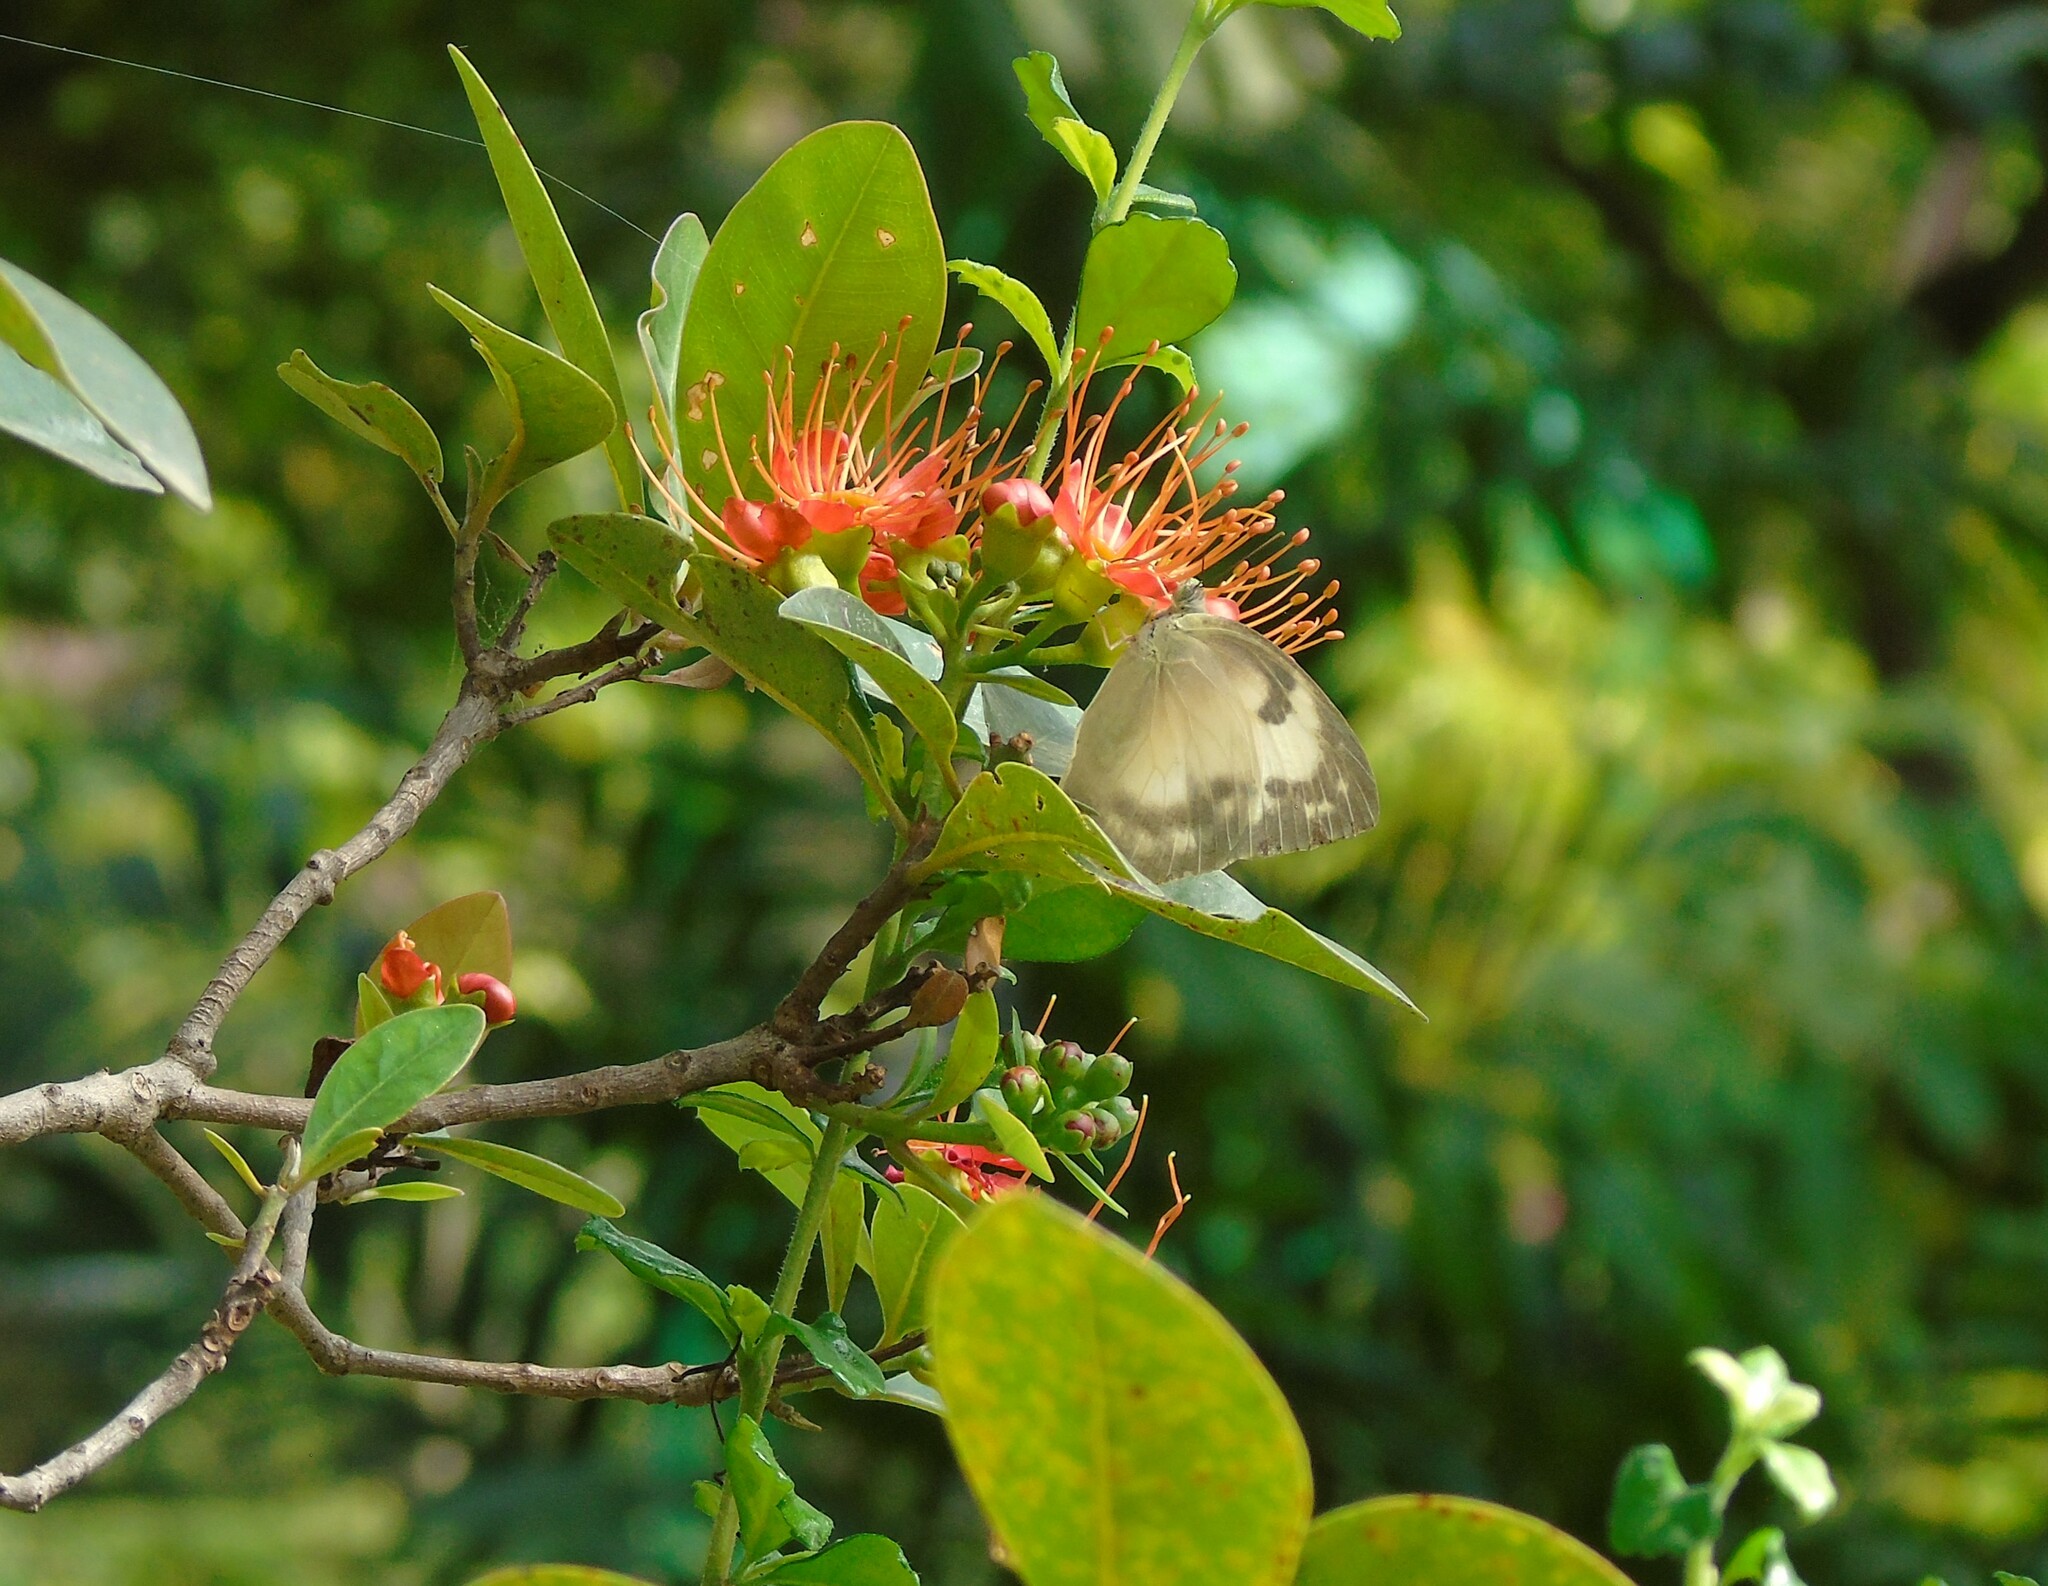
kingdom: Animalia
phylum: Arthropoda
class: Insecta
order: Lepidoptera
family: Pieridae
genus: Catopsilia
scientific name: Catopsilia pomona
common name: Common emigrant
